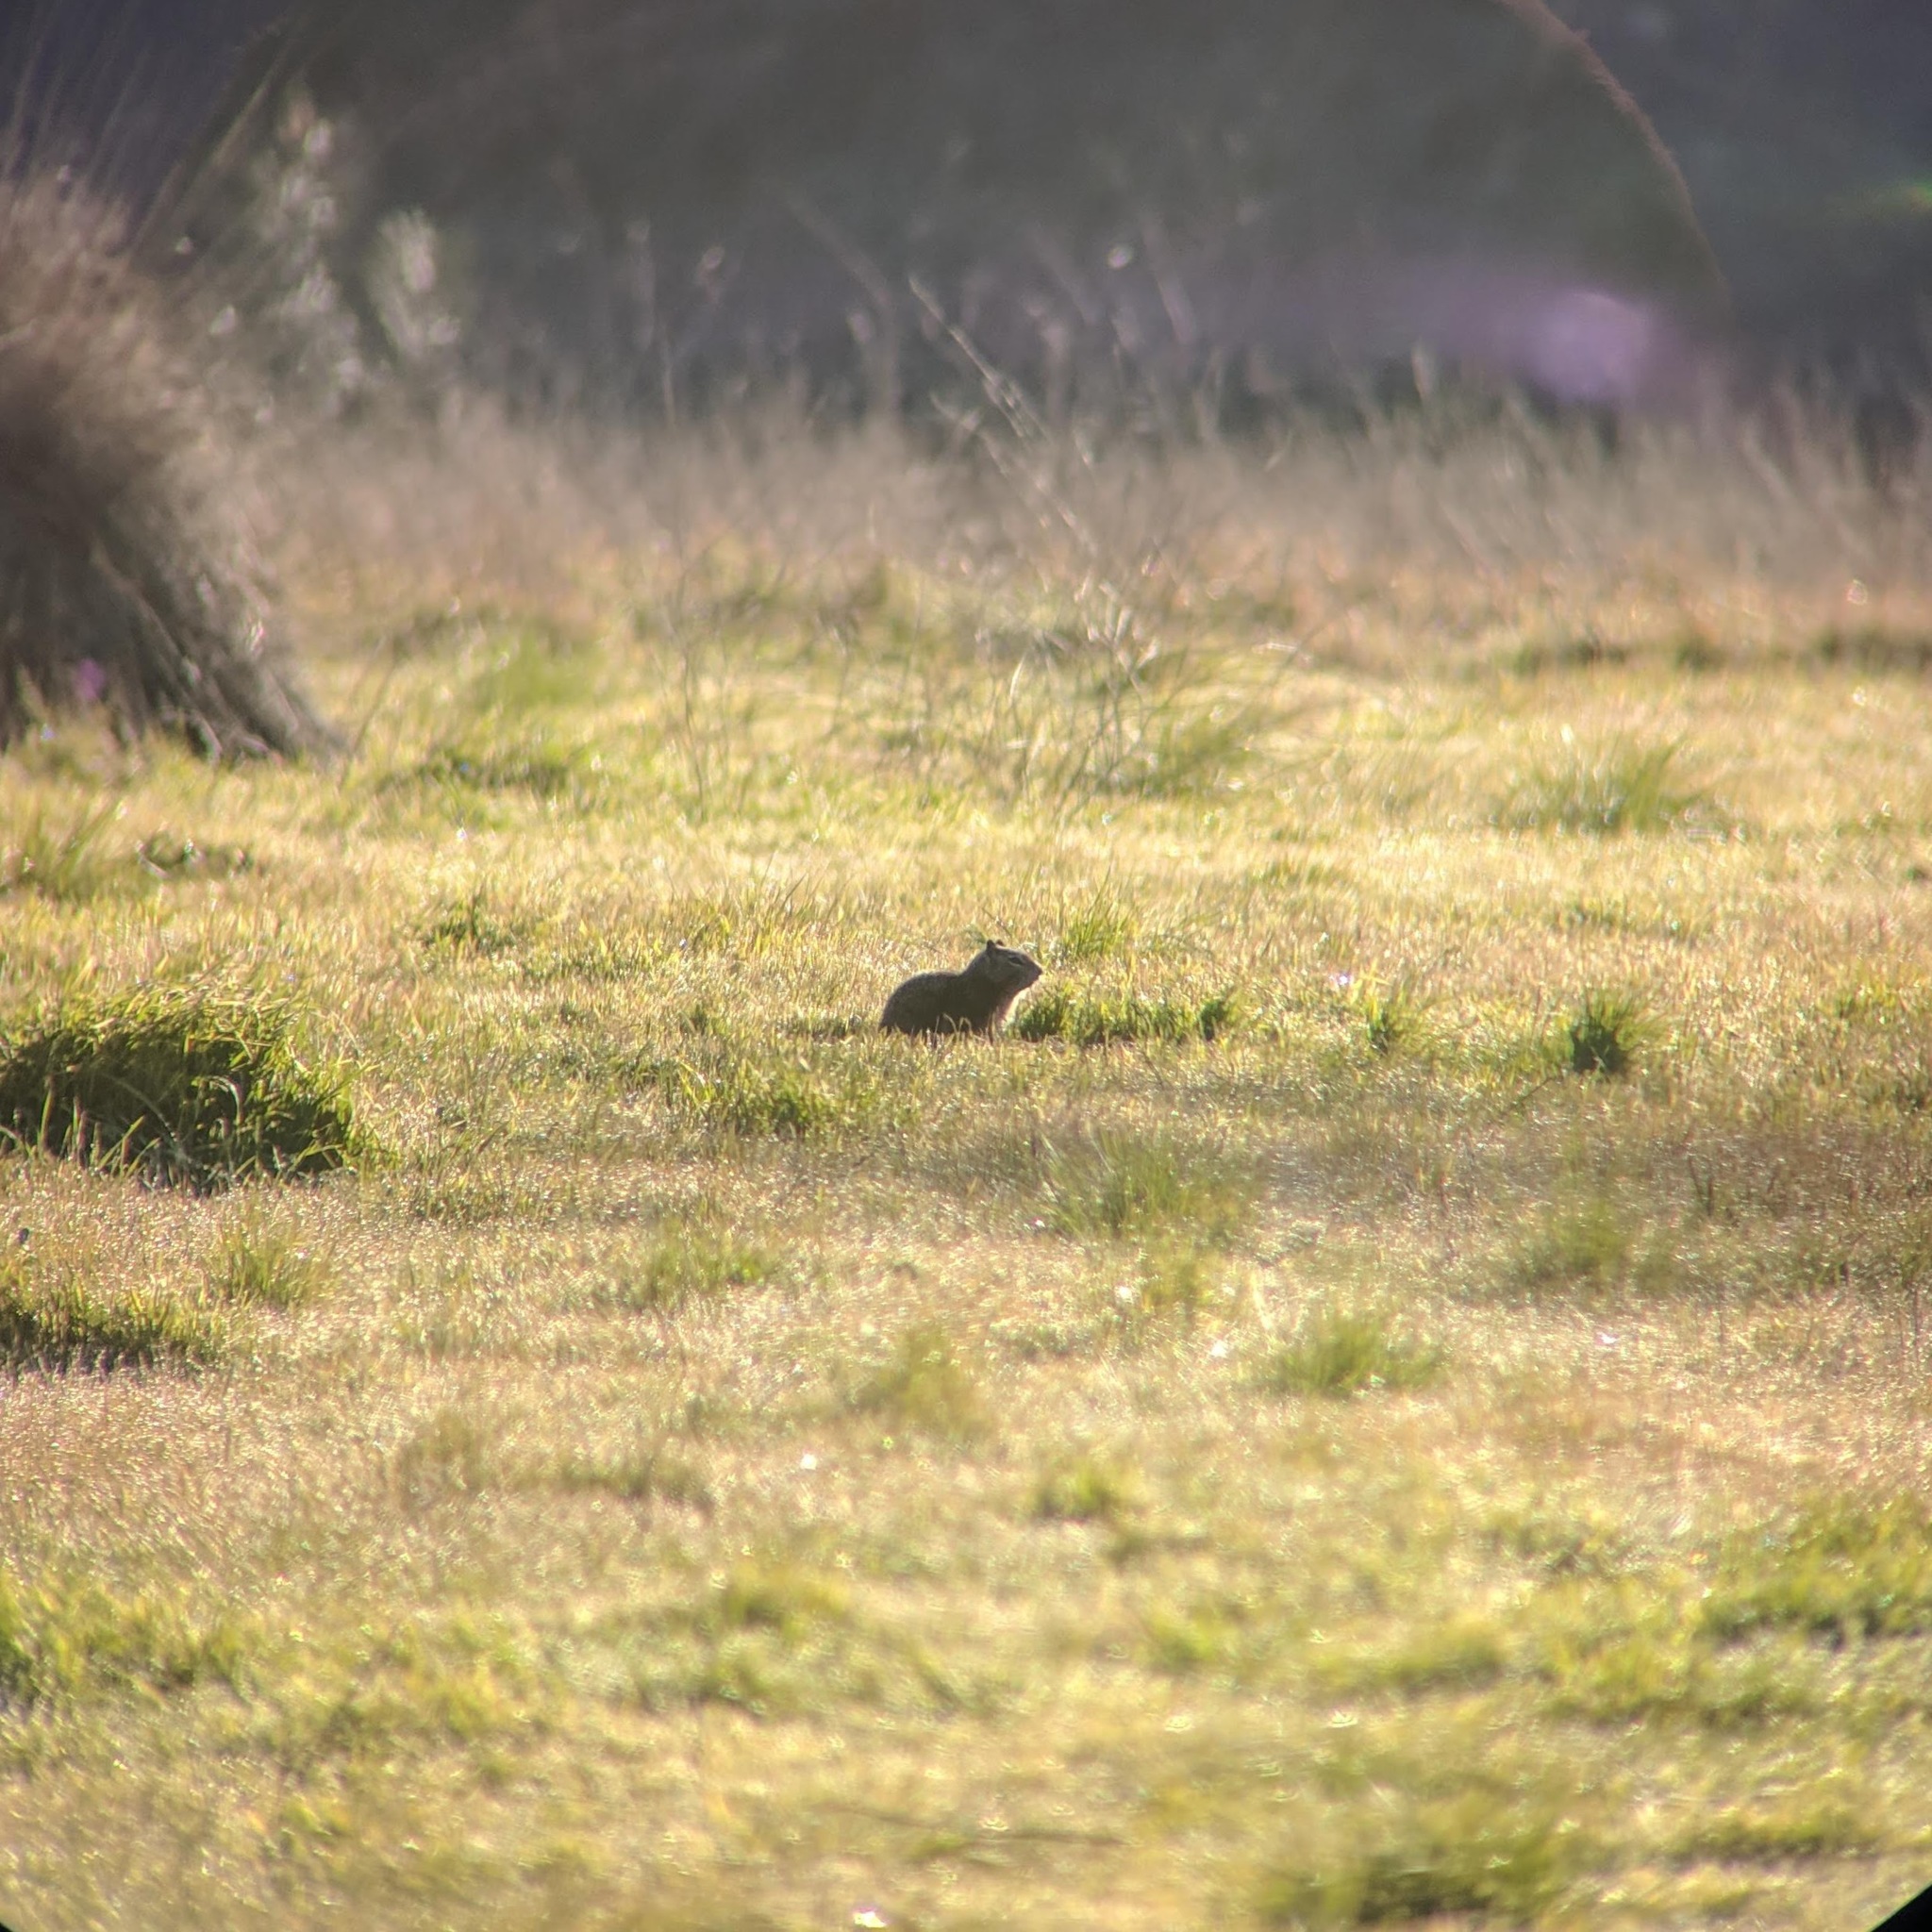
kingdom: Animalia
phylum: Chordata
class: Mammalia
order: Rodentia
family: Sciuridae
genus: Otospermophilus
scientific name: Otospermophilus beecheyi
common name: California ground squirrel
